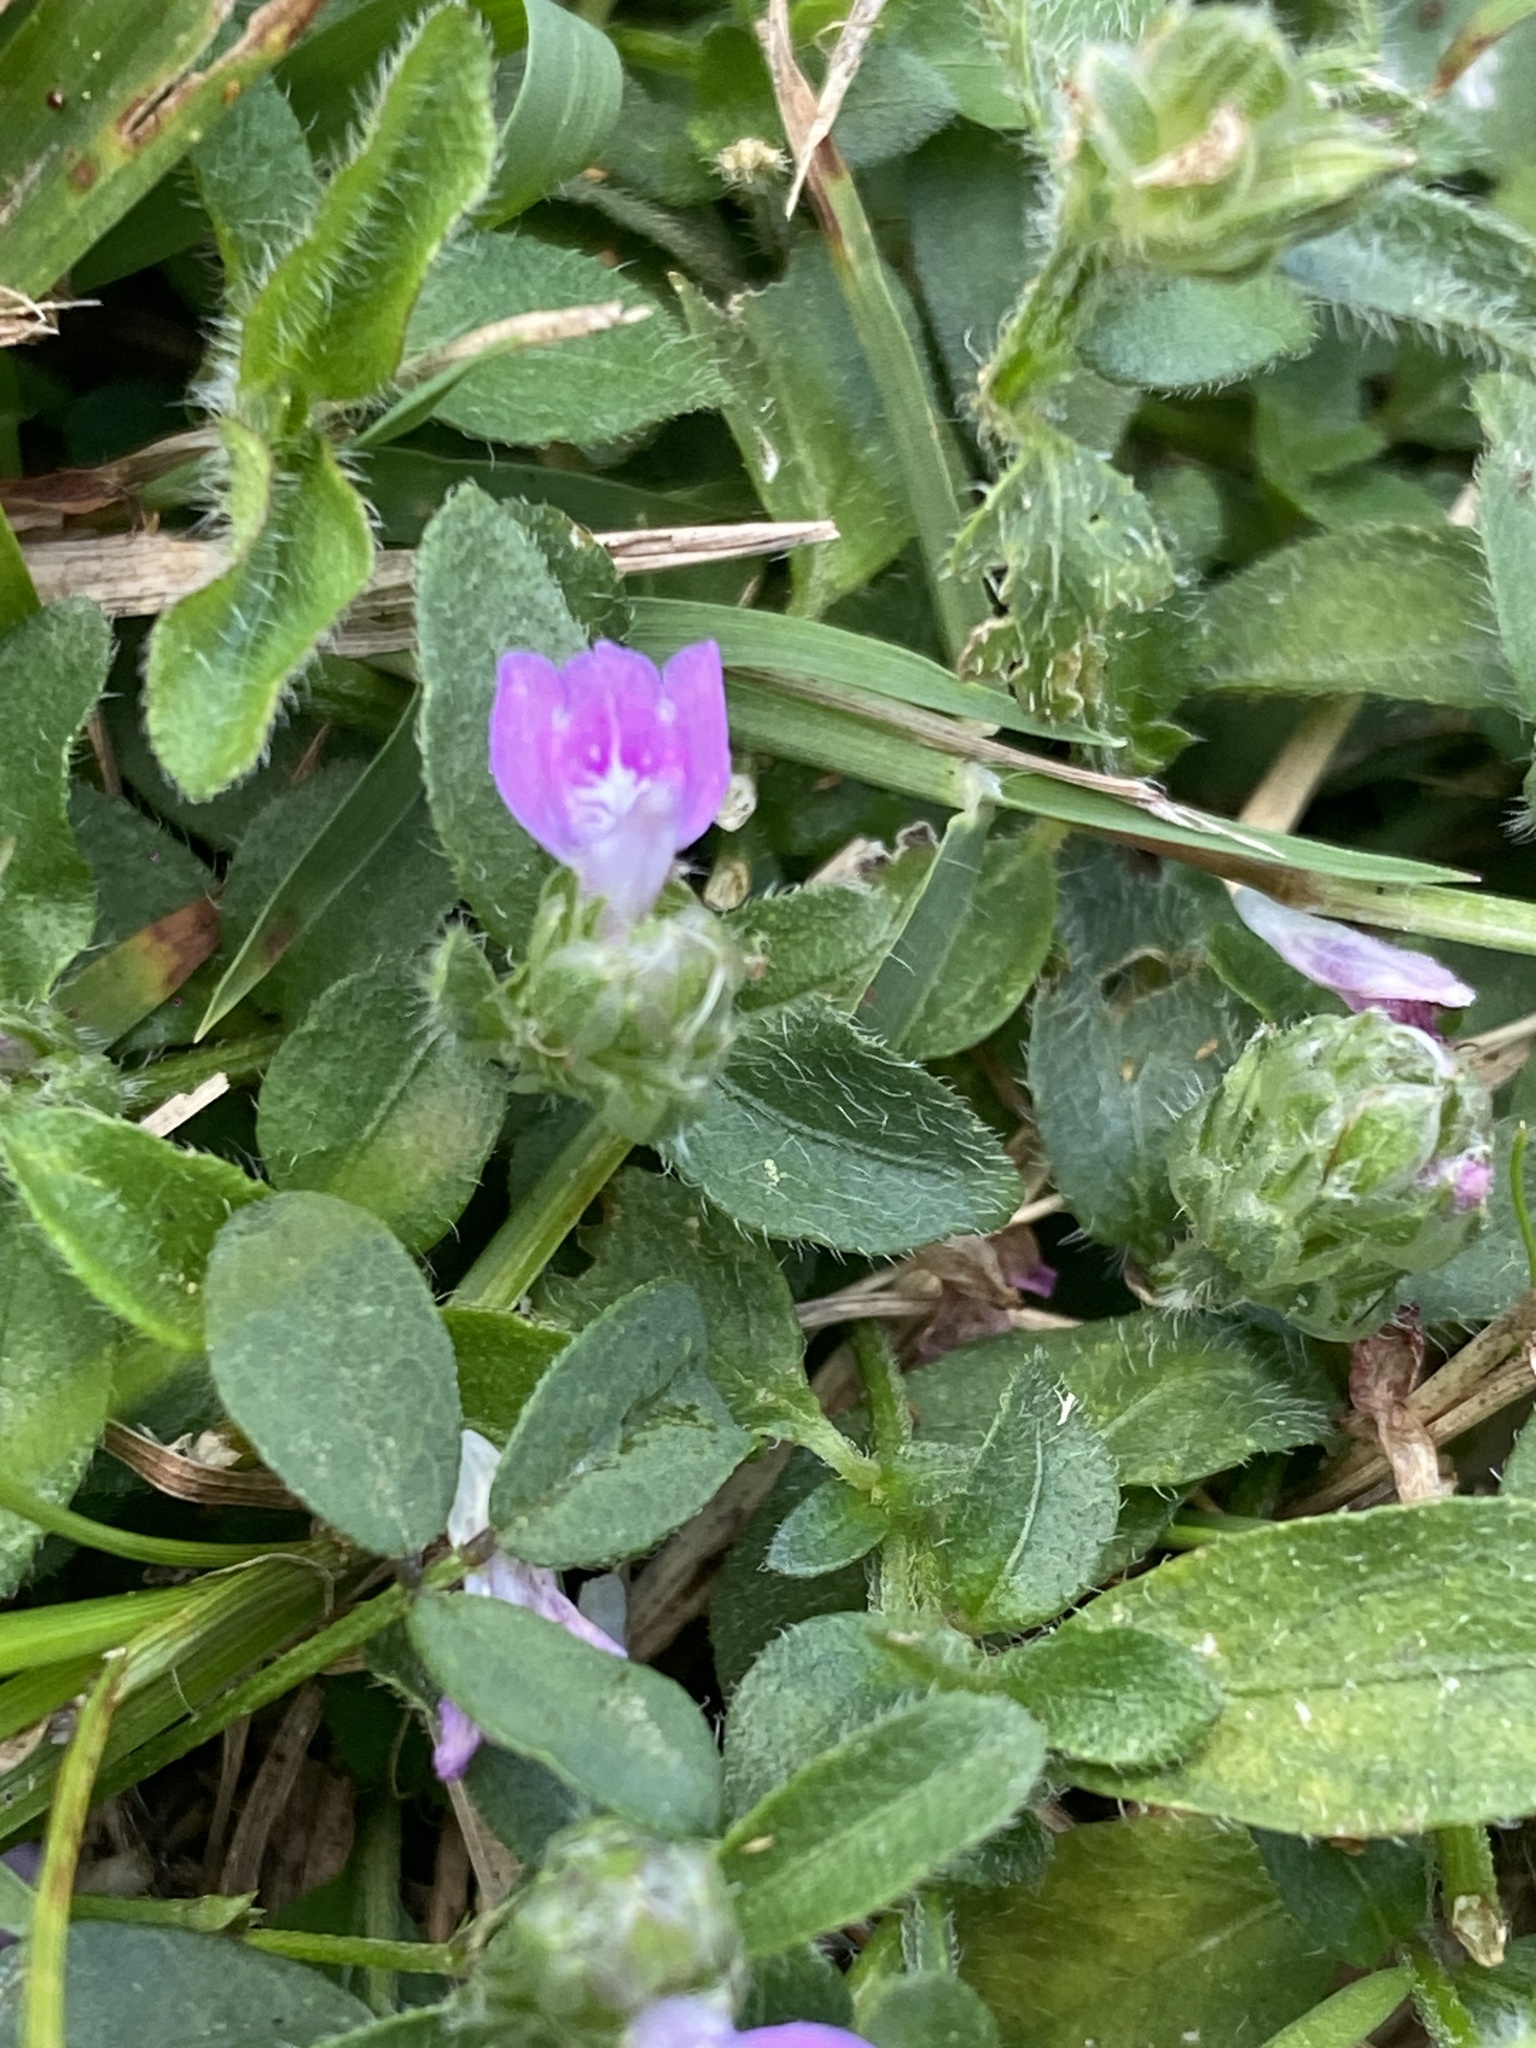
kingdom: Plantae
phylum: Tracheophyta
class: Magnoliopsida
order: Lamiales
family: Acanthaceae
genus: Rostellularia
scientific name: Rostellularia obtusa
